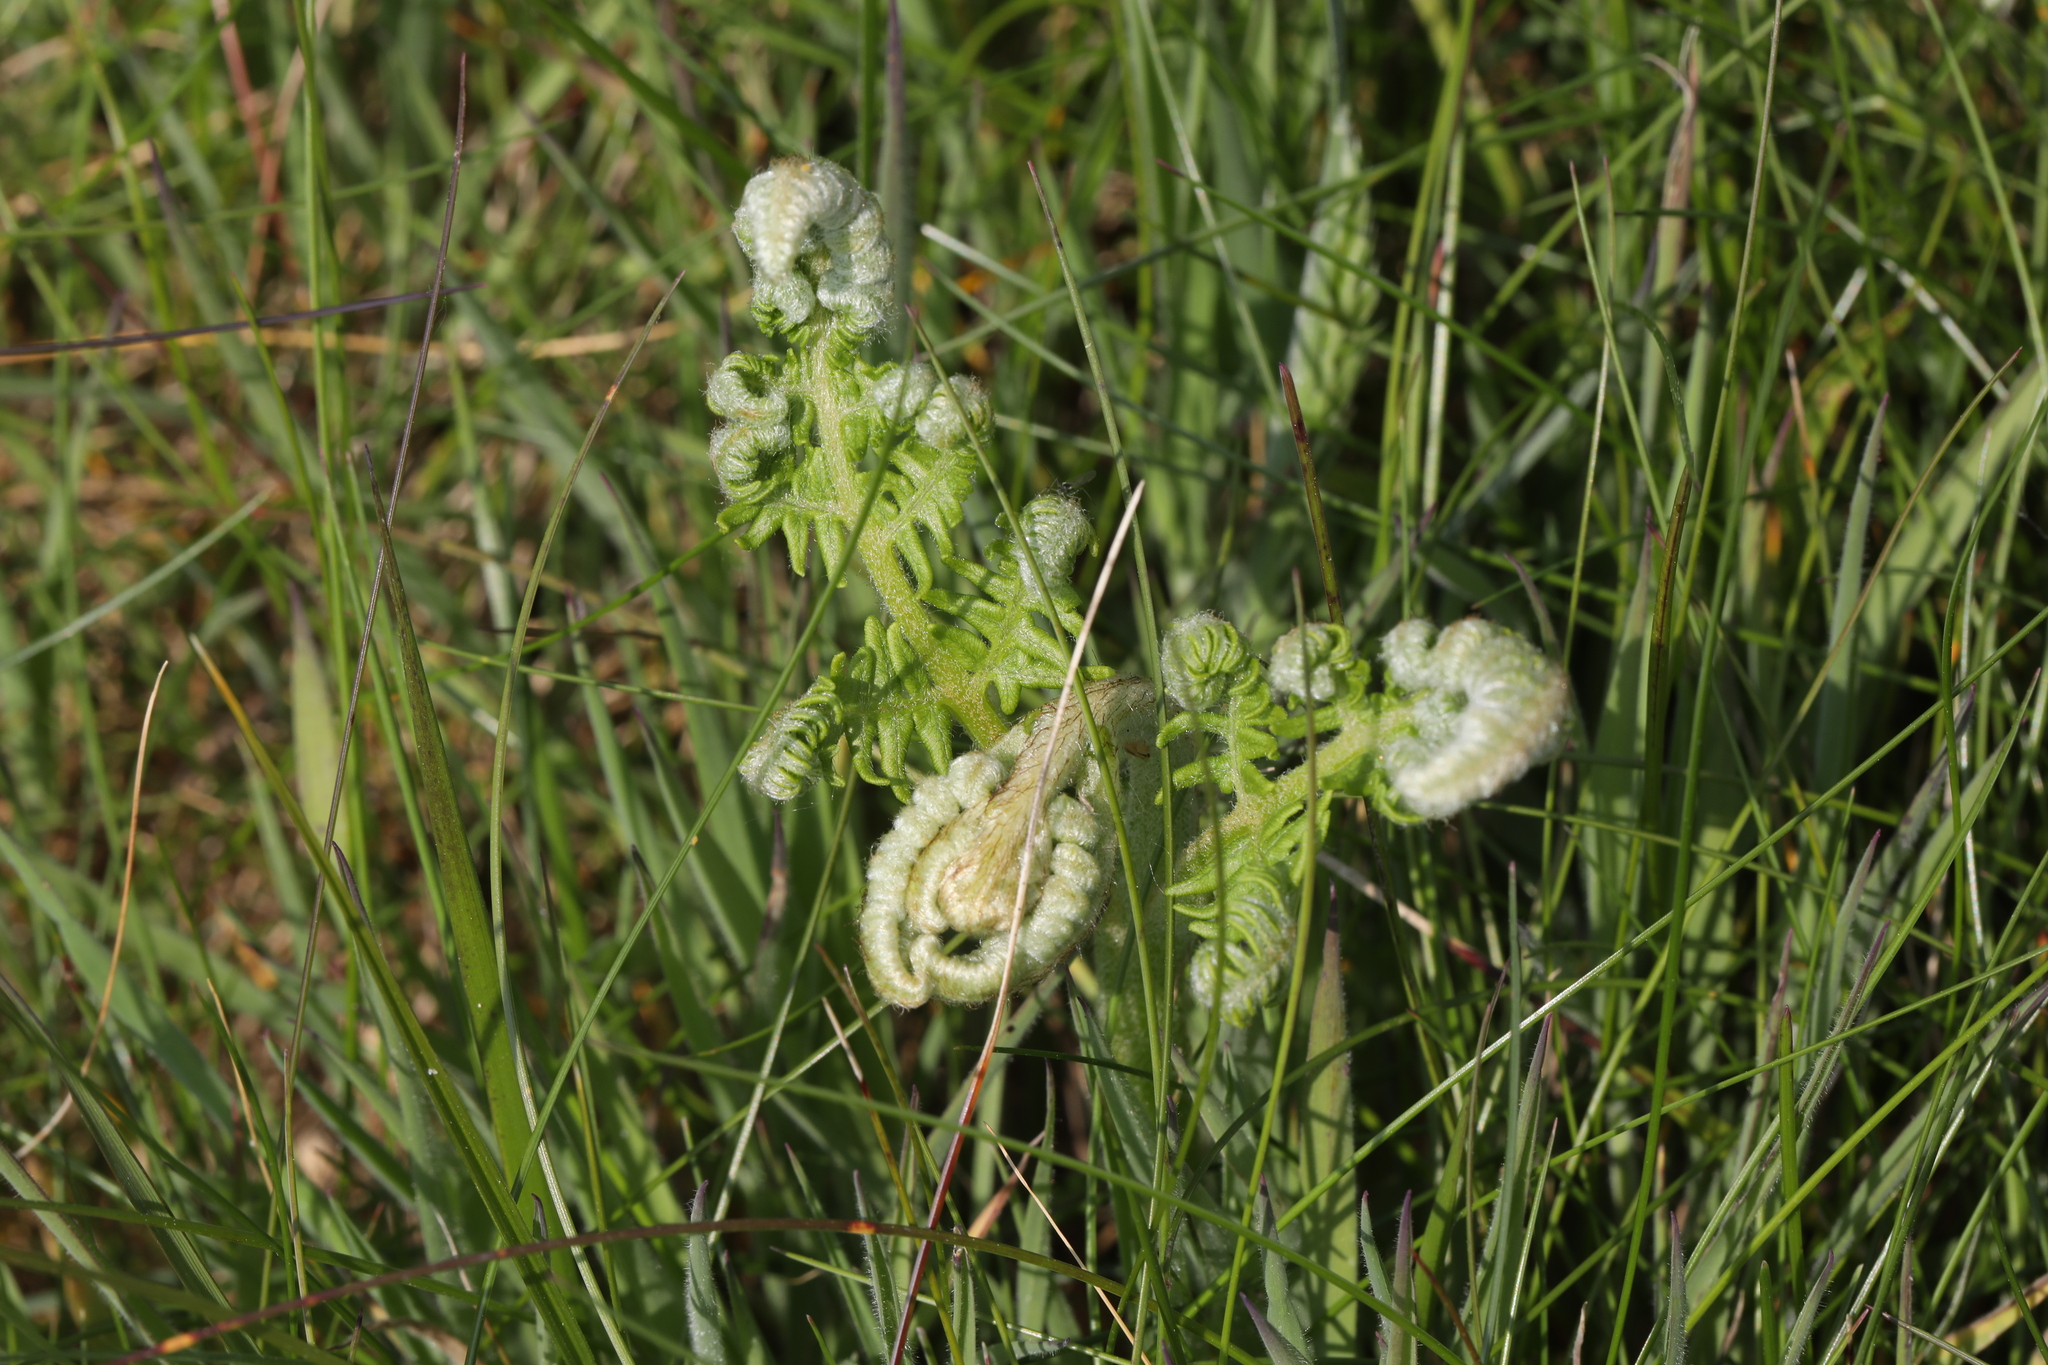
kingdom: Plantae
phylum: Tracheophyta
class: Polypodiopsida
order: Polypodiales
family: Dennstaedtiaceae
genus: Pteridium
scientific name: Pteridium aquilinum
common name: Bracken
